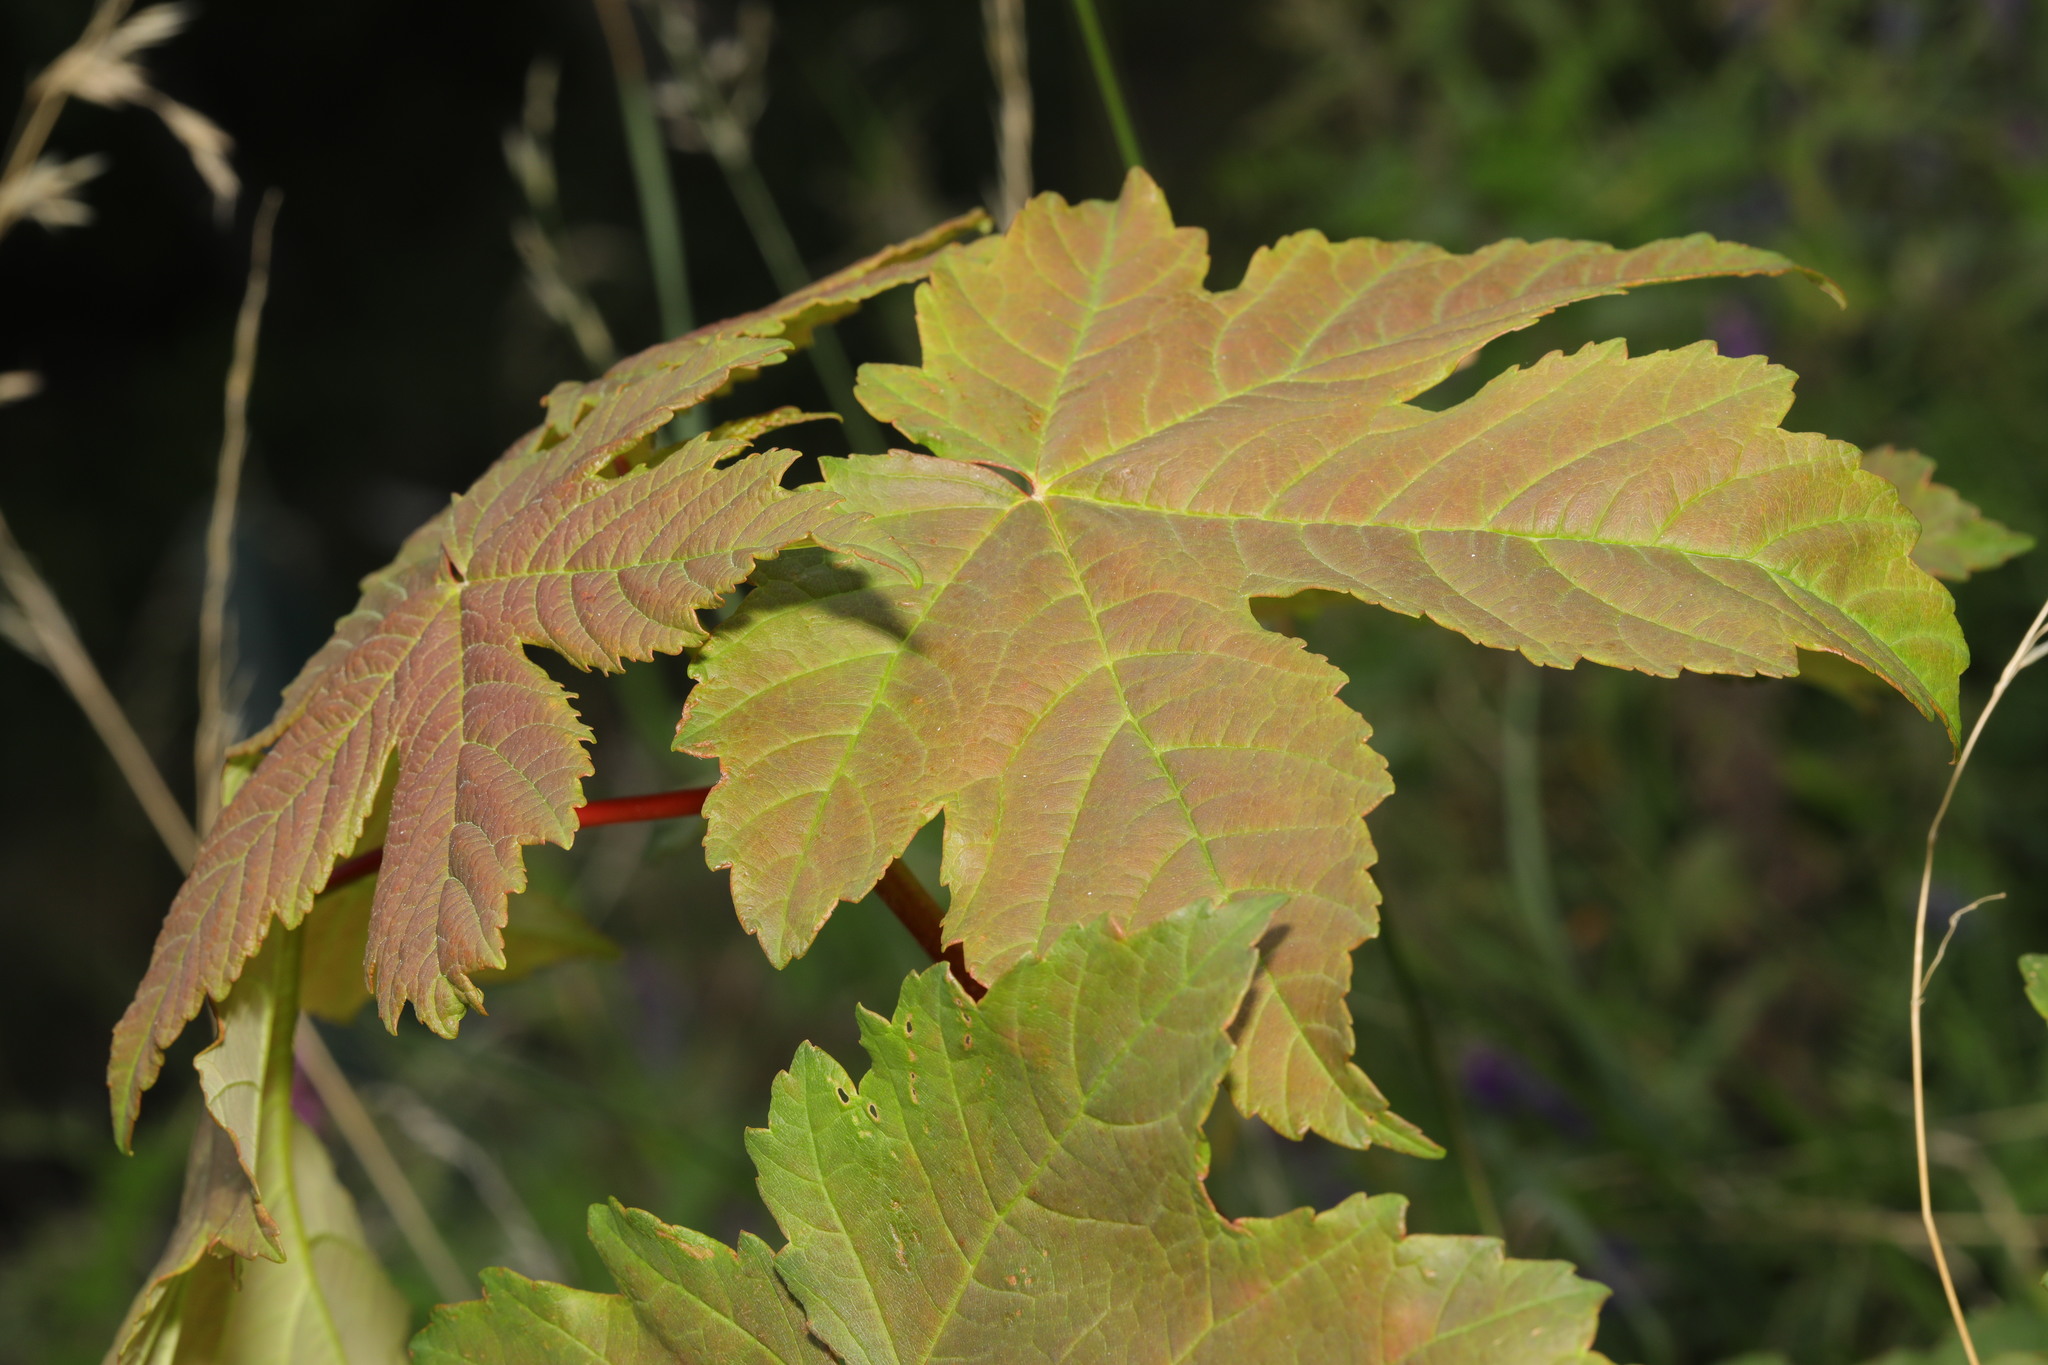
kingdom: Plantae
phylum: Tracheophyta
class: Magnoliopsida
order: Sapindales
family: Sapindaceae
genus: Acer
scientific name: Acer pseudoplatanus
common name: Sycamore
